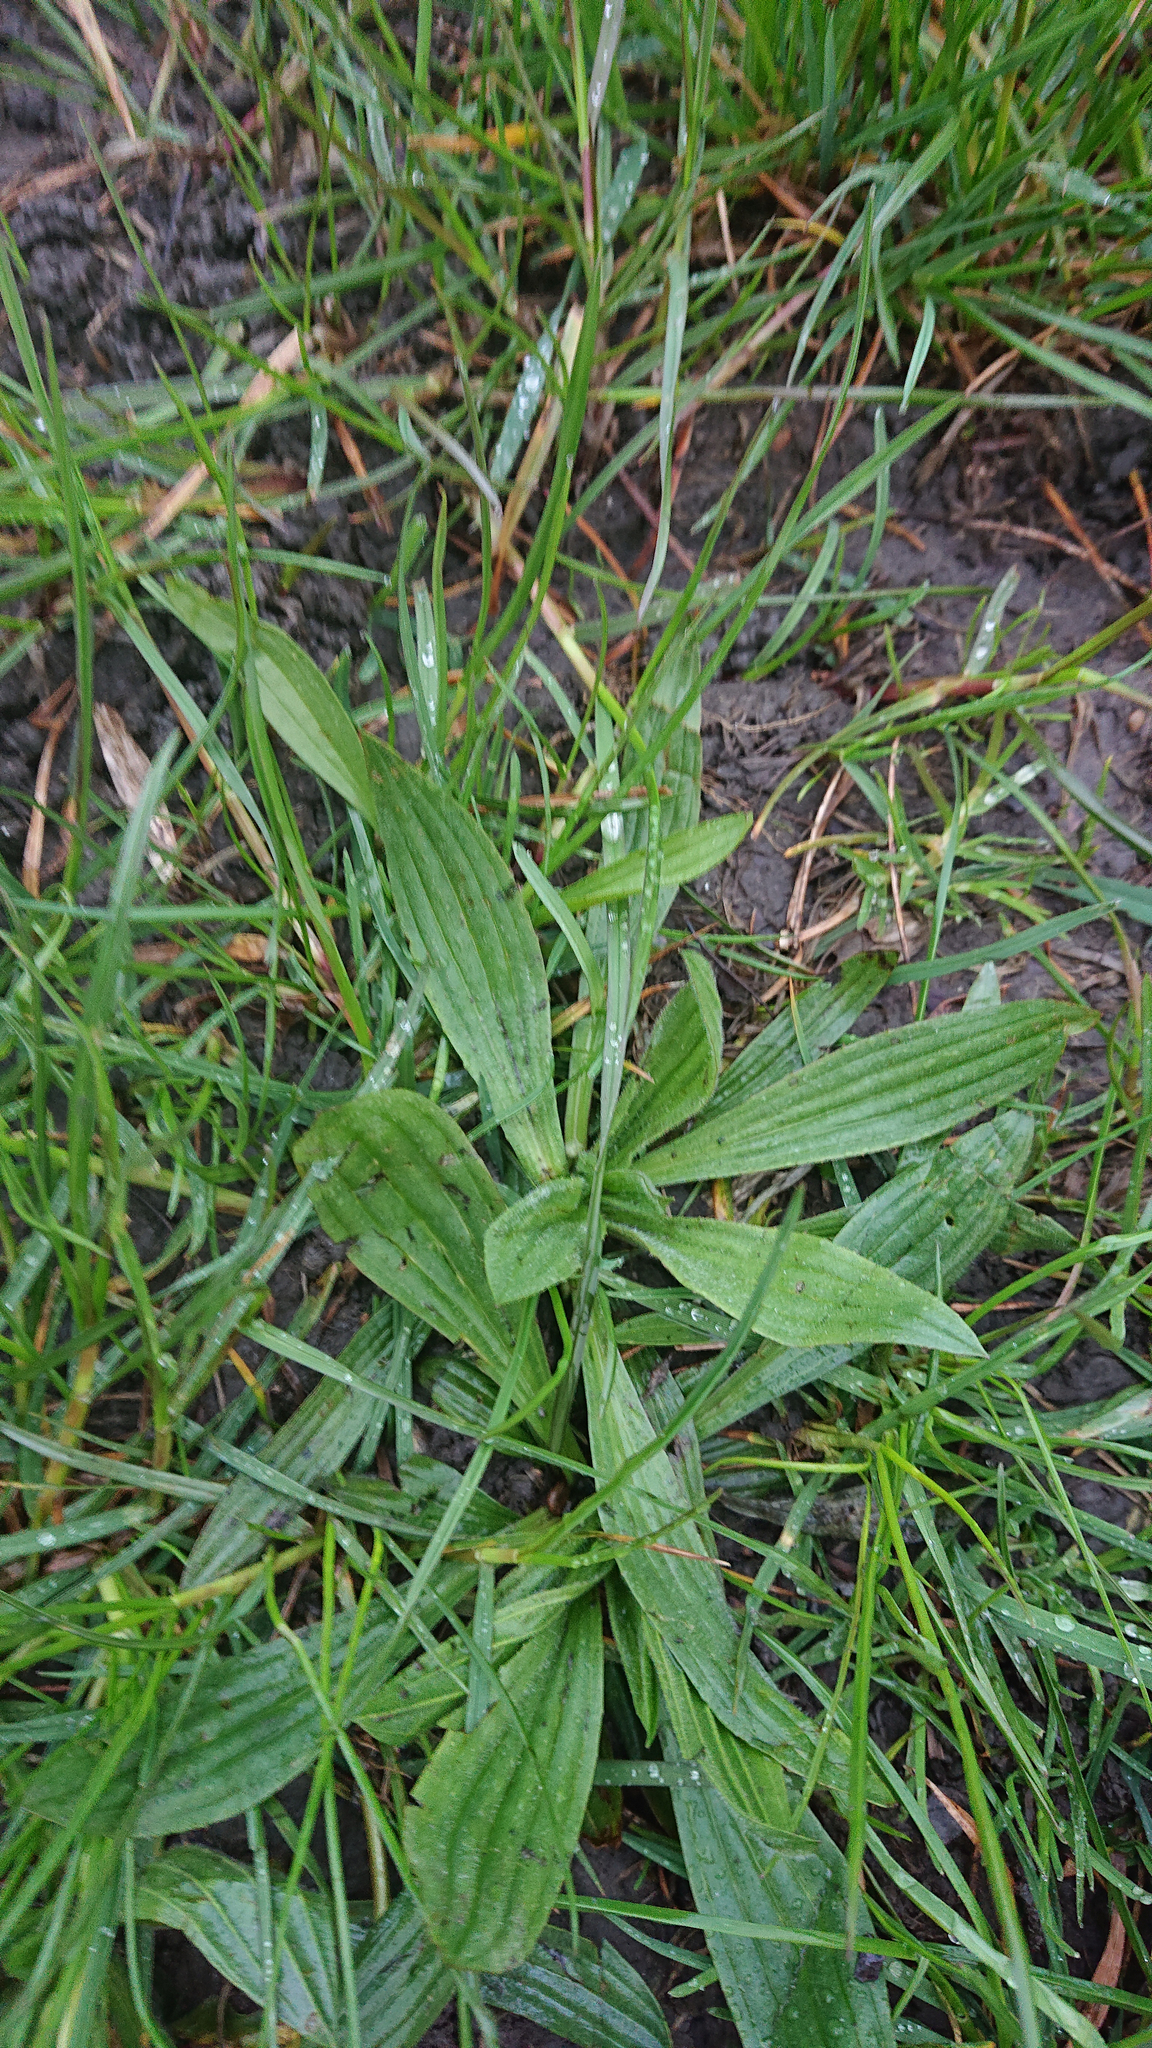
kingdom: Plantae
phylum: Tracheophyta
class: Magnoliopsida
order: Lamiales
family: Plantaginaceae
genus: Plantago
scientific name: Plantago lanceolata
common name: Ribwort plantain
